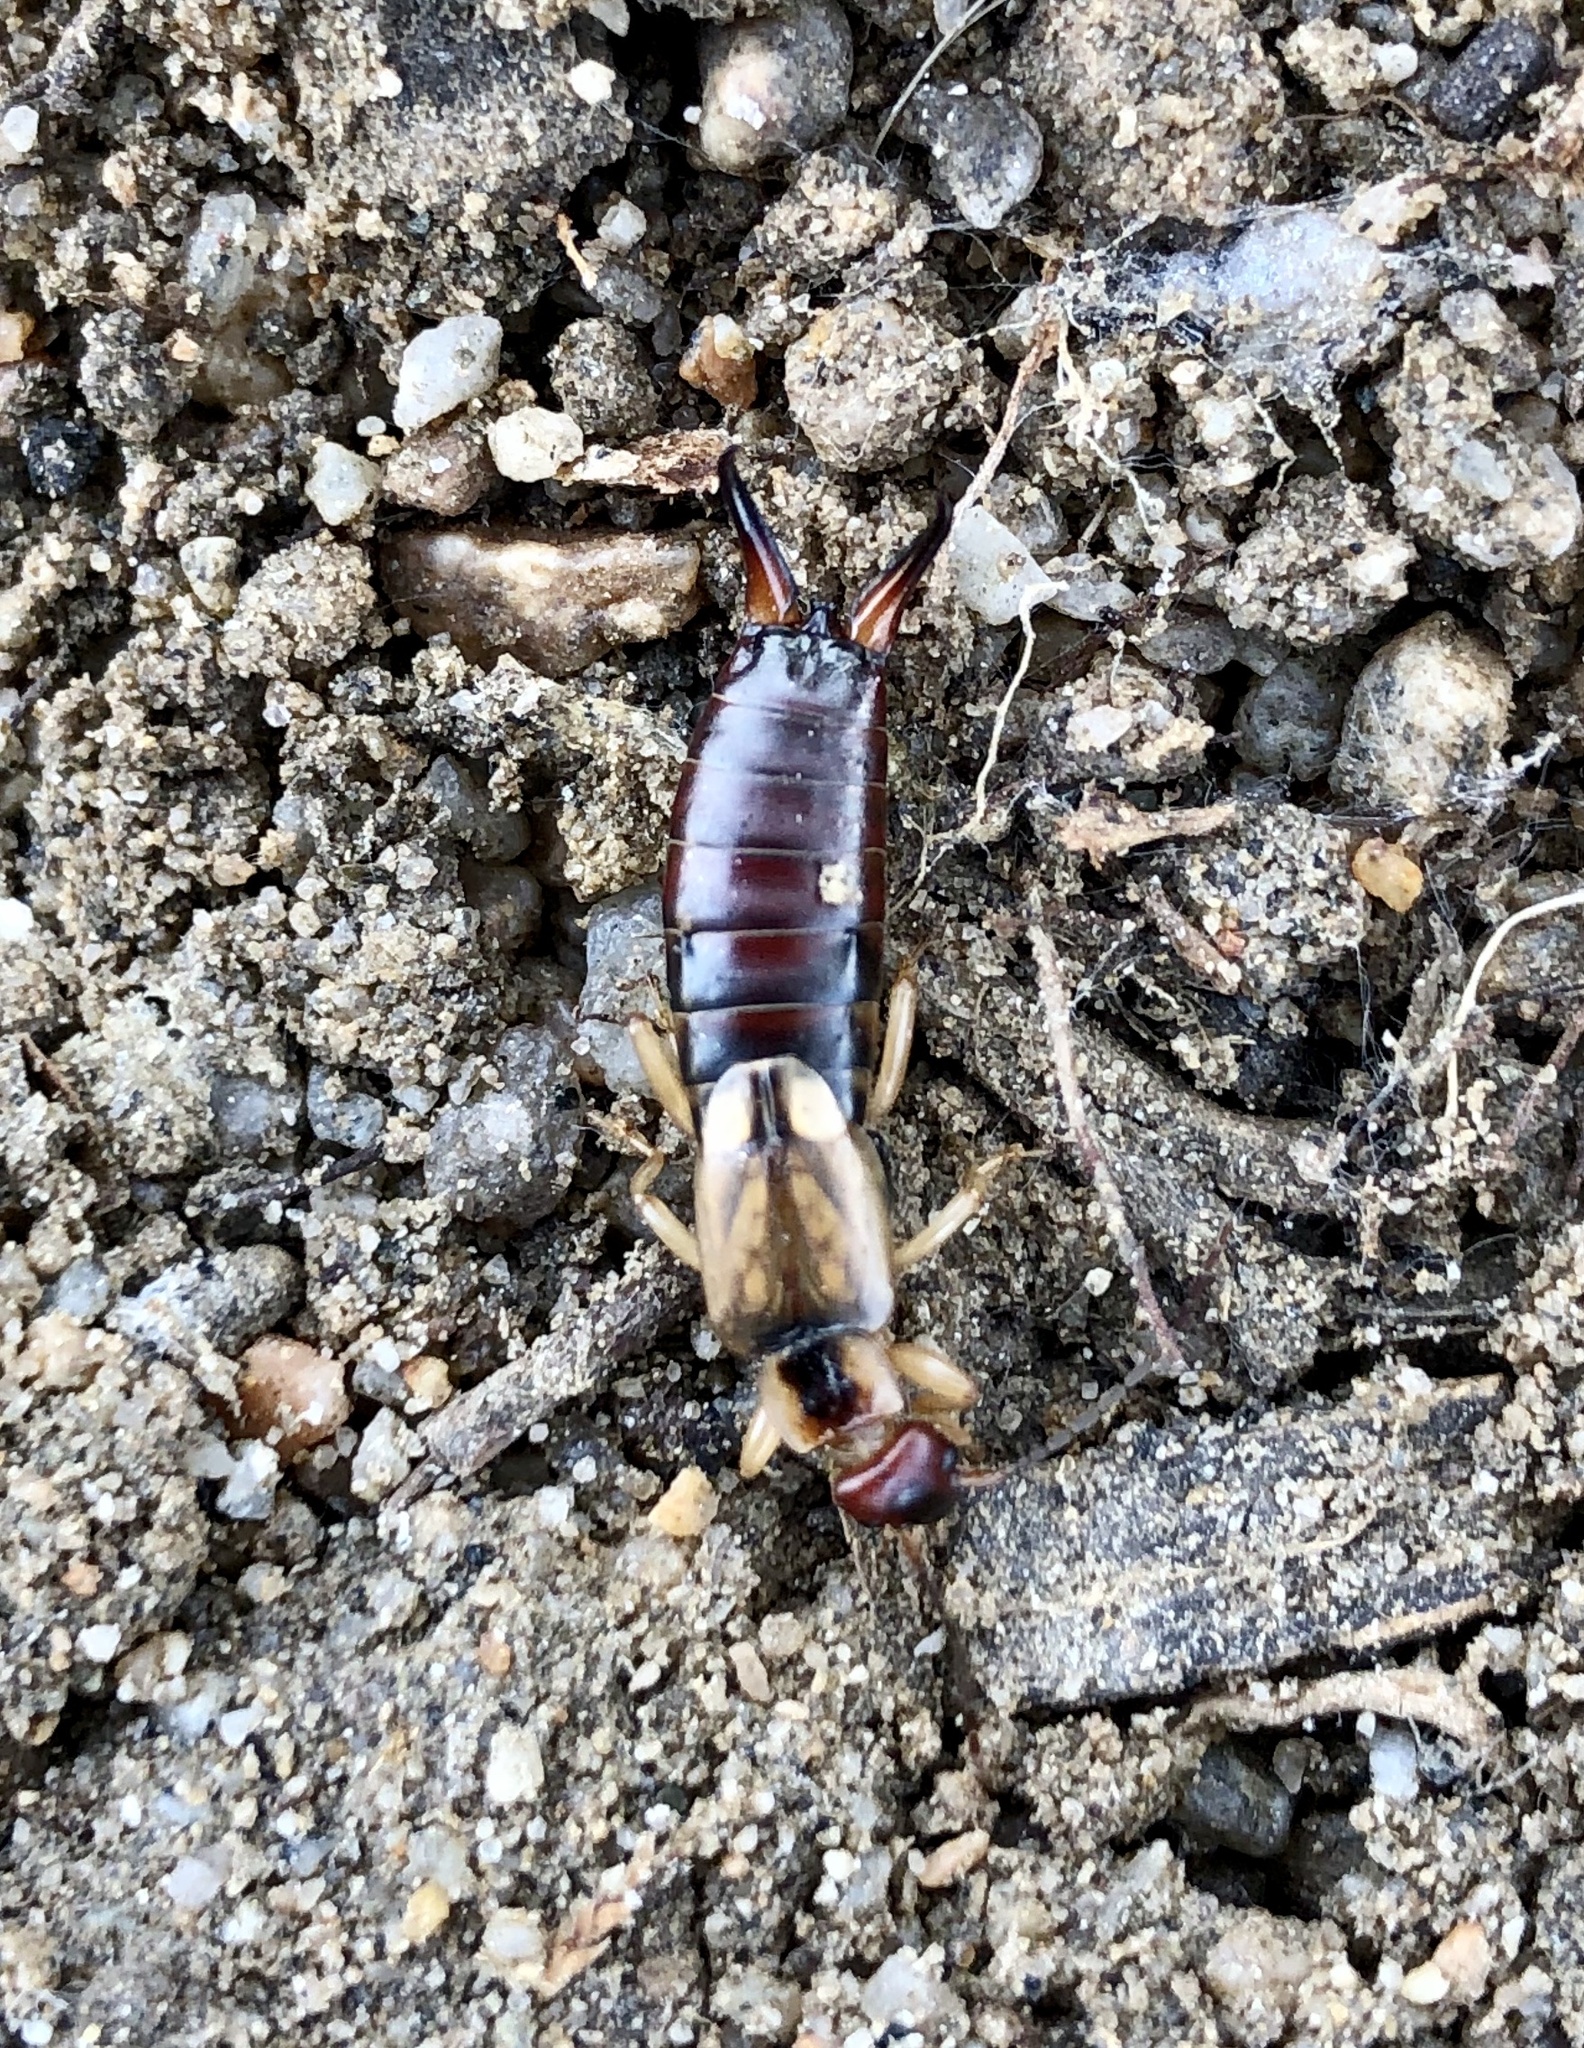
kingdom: Animalia
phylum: Arthropoda
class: Insecta
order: Dermaptera
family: Forficulidae
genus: Forficula
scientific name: Forficula
